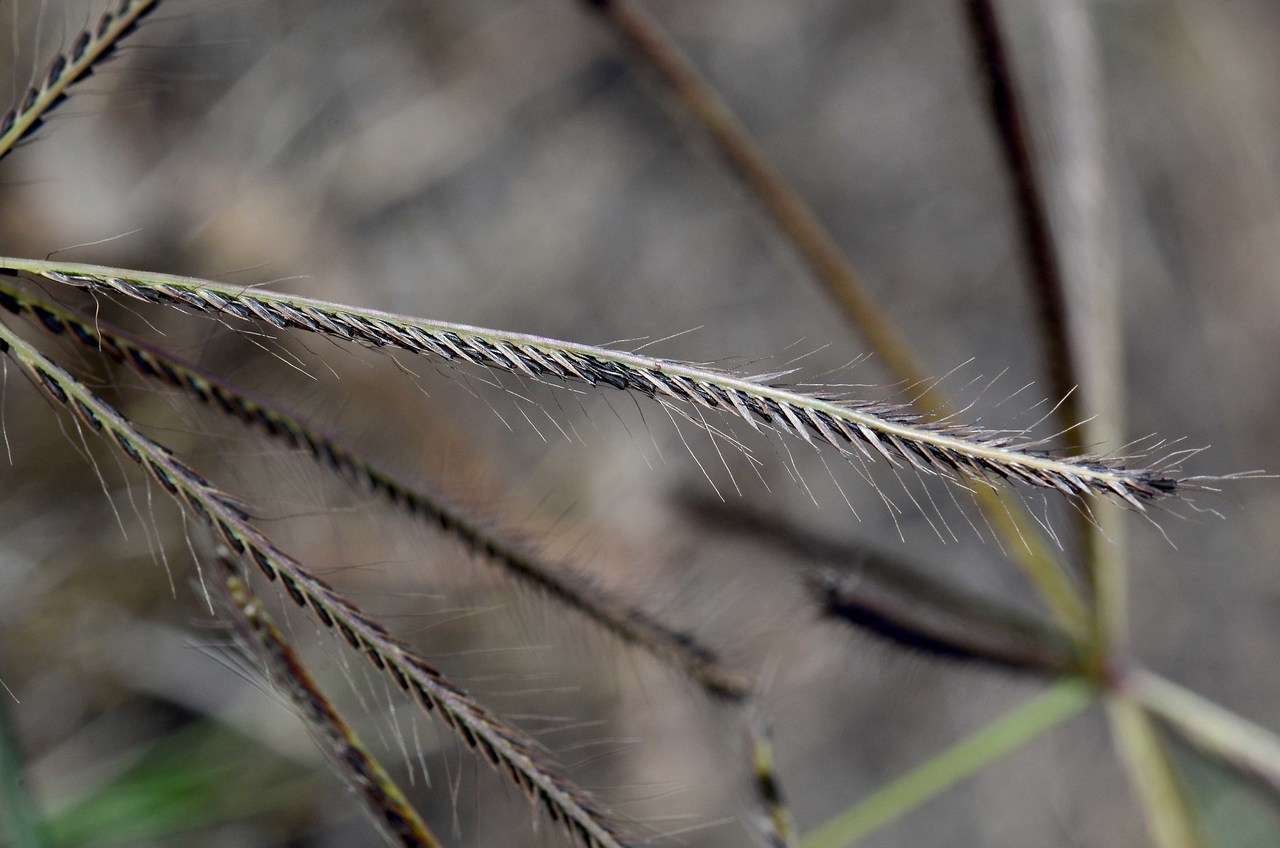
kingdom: Plantae
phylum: Tracheophyta
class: Liliopsida
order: Poales
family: Poaceae
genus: Chloris
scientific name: Chloris truncata
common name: Windmill-grass
